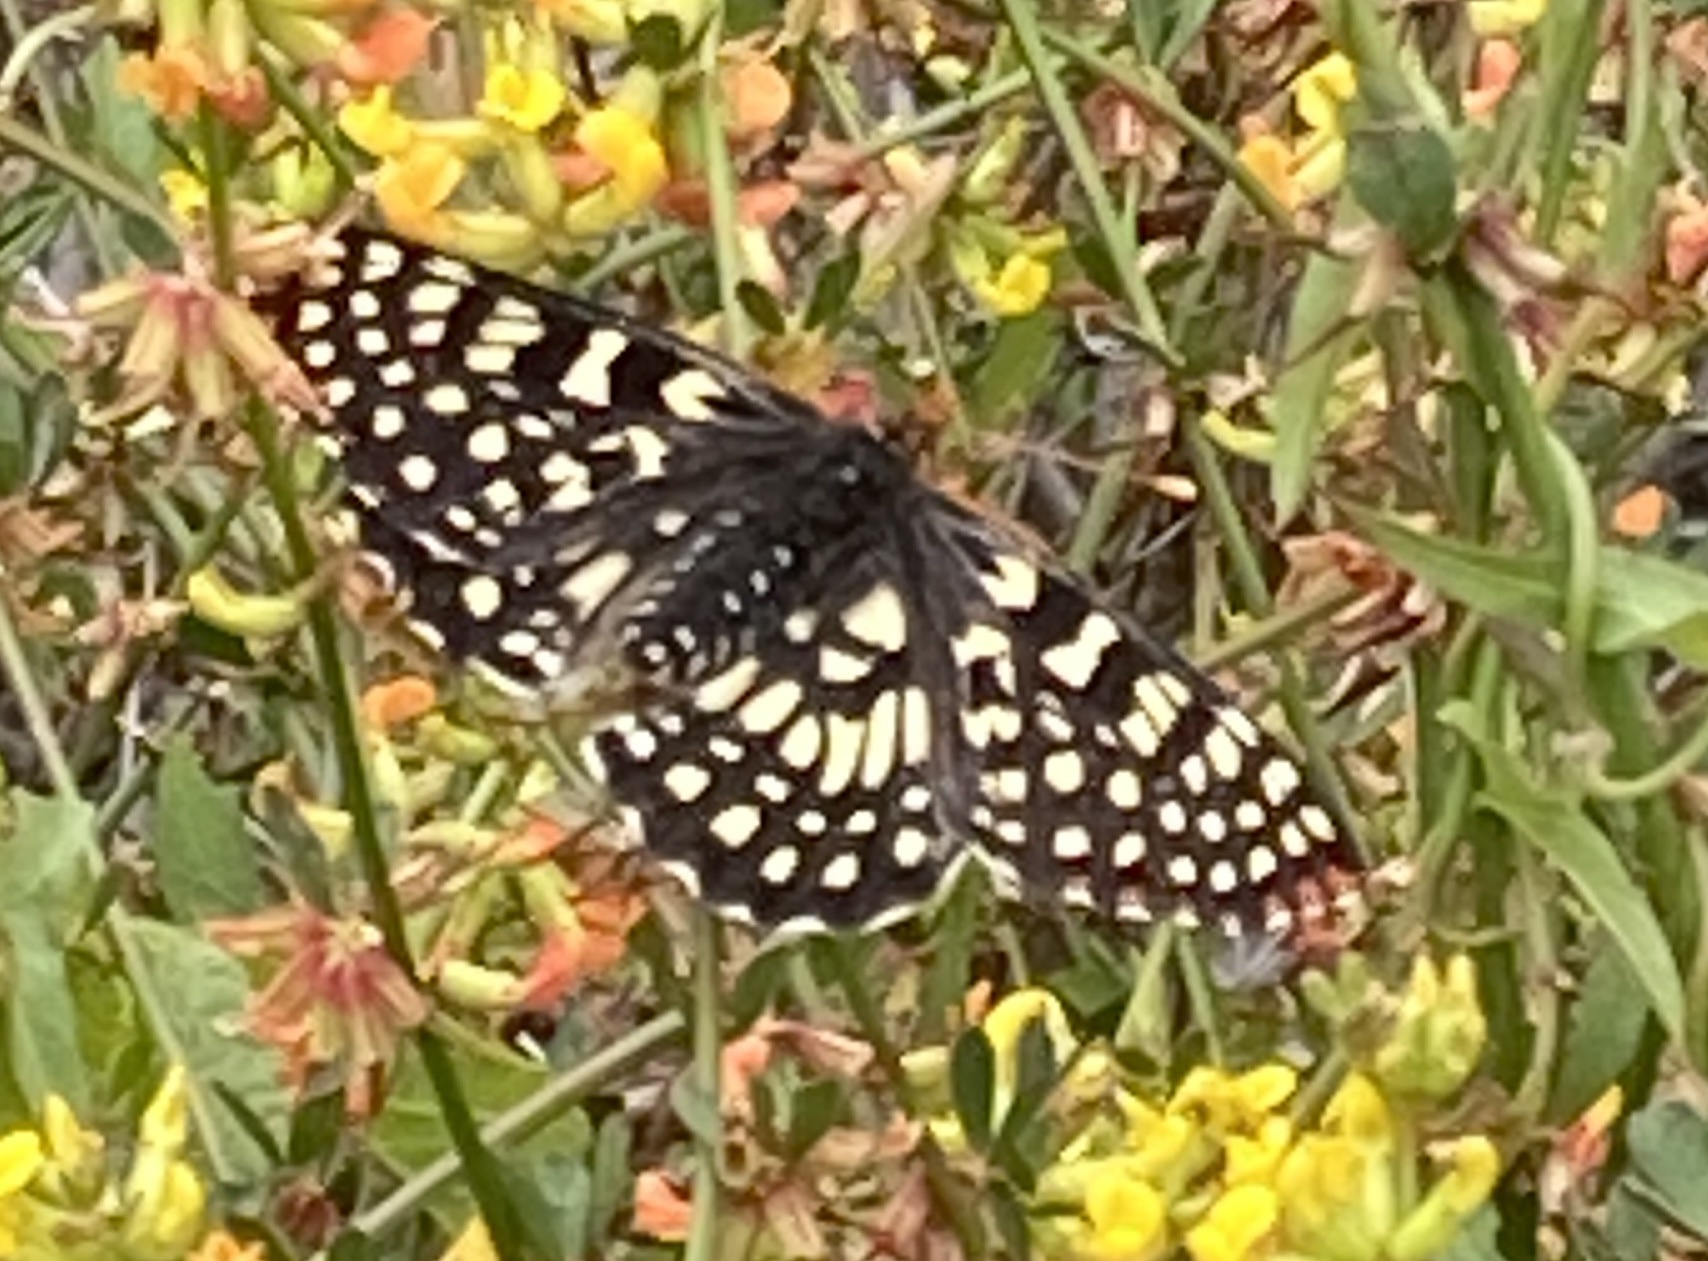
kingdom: Animalia
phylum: Arthropoda
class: Insecta
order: Lepidoptera
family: Nymphalidae
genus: Occidryas
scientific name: Occidryas chalcedona
